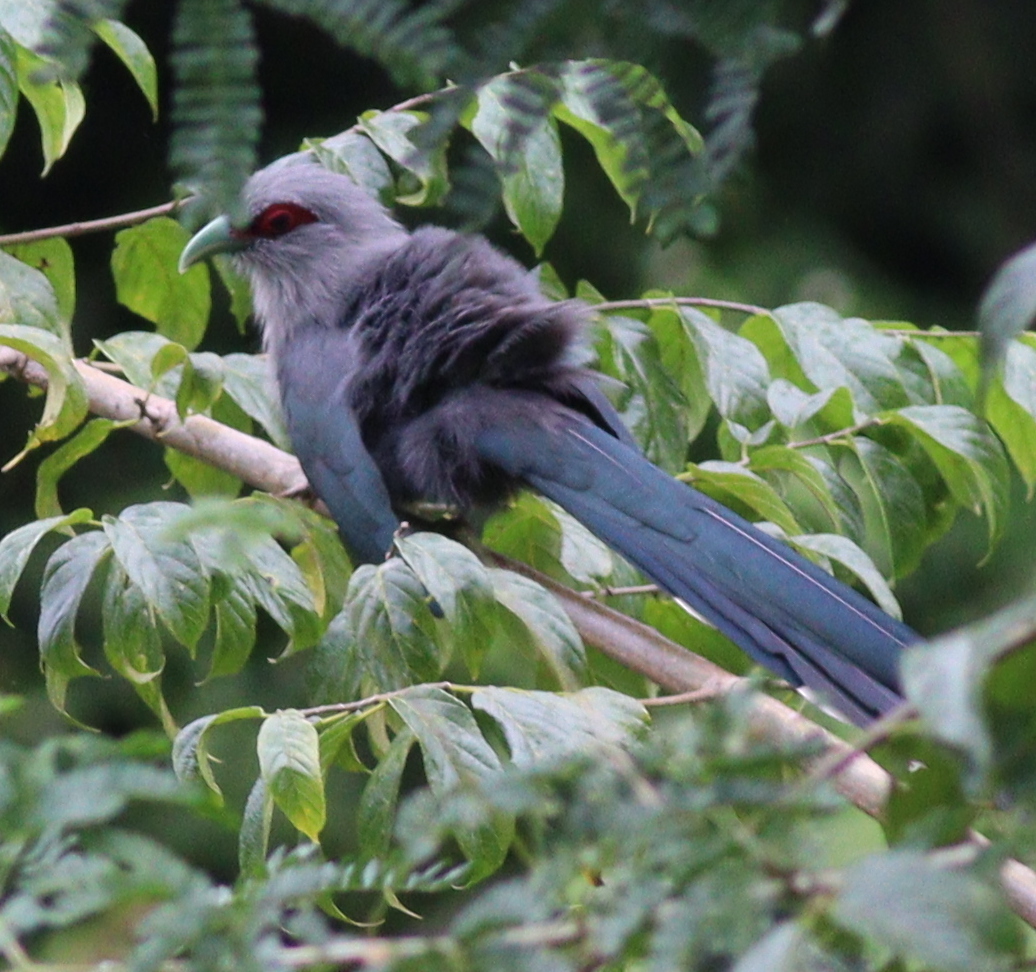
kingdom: Animalia
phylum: Chordata
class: Aves
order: Cuculiformes
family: Cuculidae
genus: Rhopodytes
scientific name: Rhopodytes tristis
